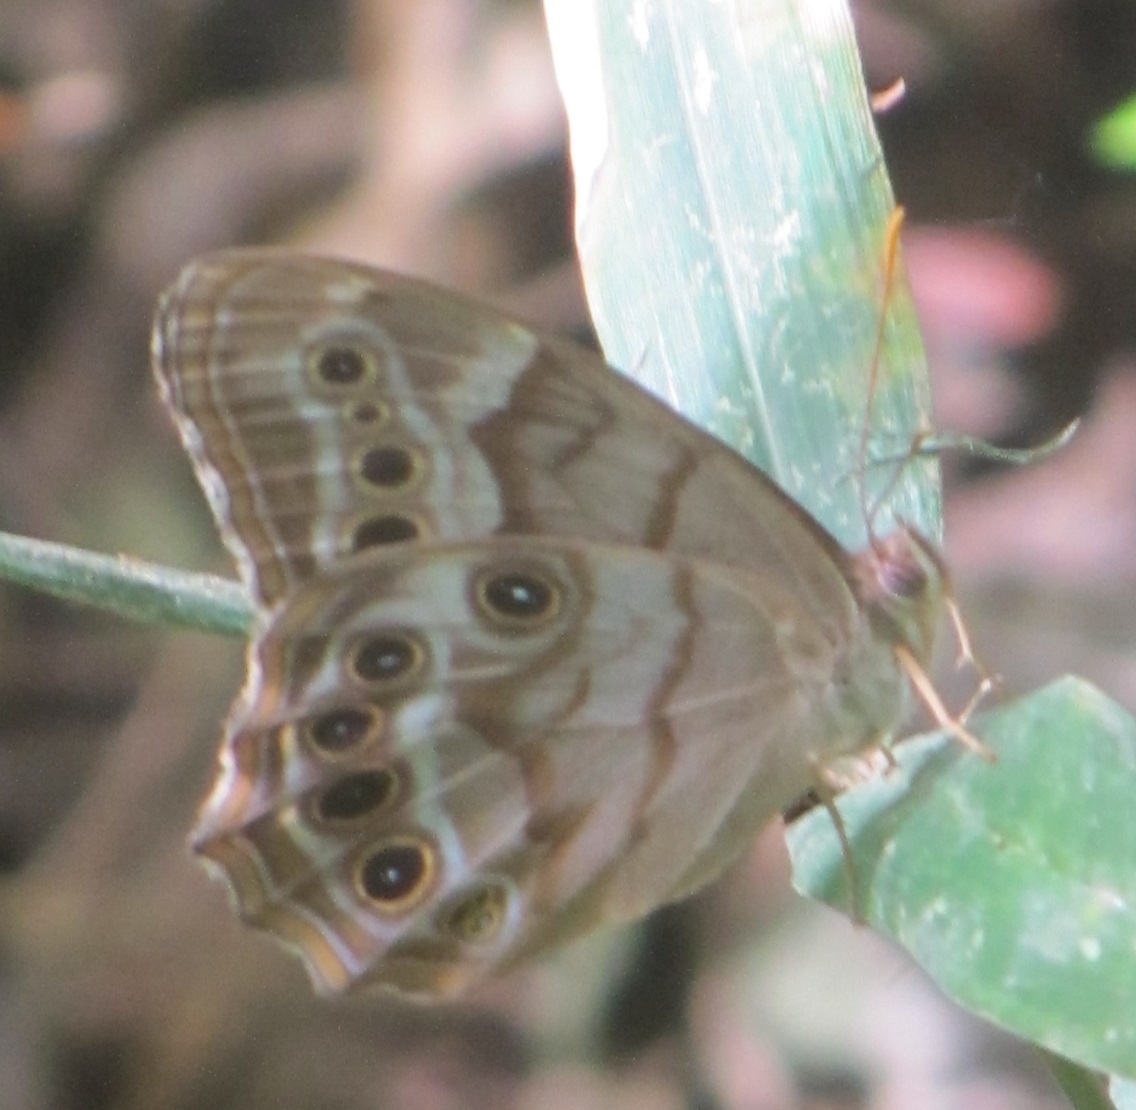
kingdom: Animalia
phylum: Arthropoda
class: Insecta
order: Lepidoptera
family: Nymphalidae
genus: Enodia
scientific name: Enodia portlandia
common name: Southern pearly-eye
